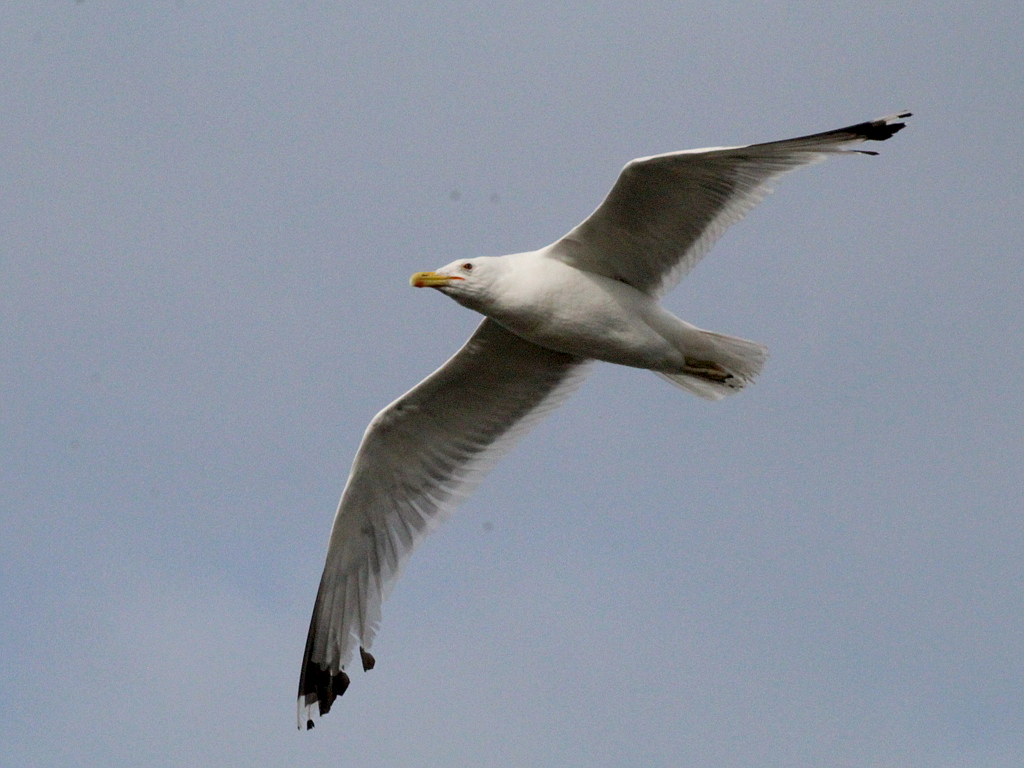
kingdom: Animalia
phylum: Chordata
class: Aves
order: Charadriiformes
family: Laridae
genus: Larus
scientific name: Larus cachinnans
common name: Caspian gull
